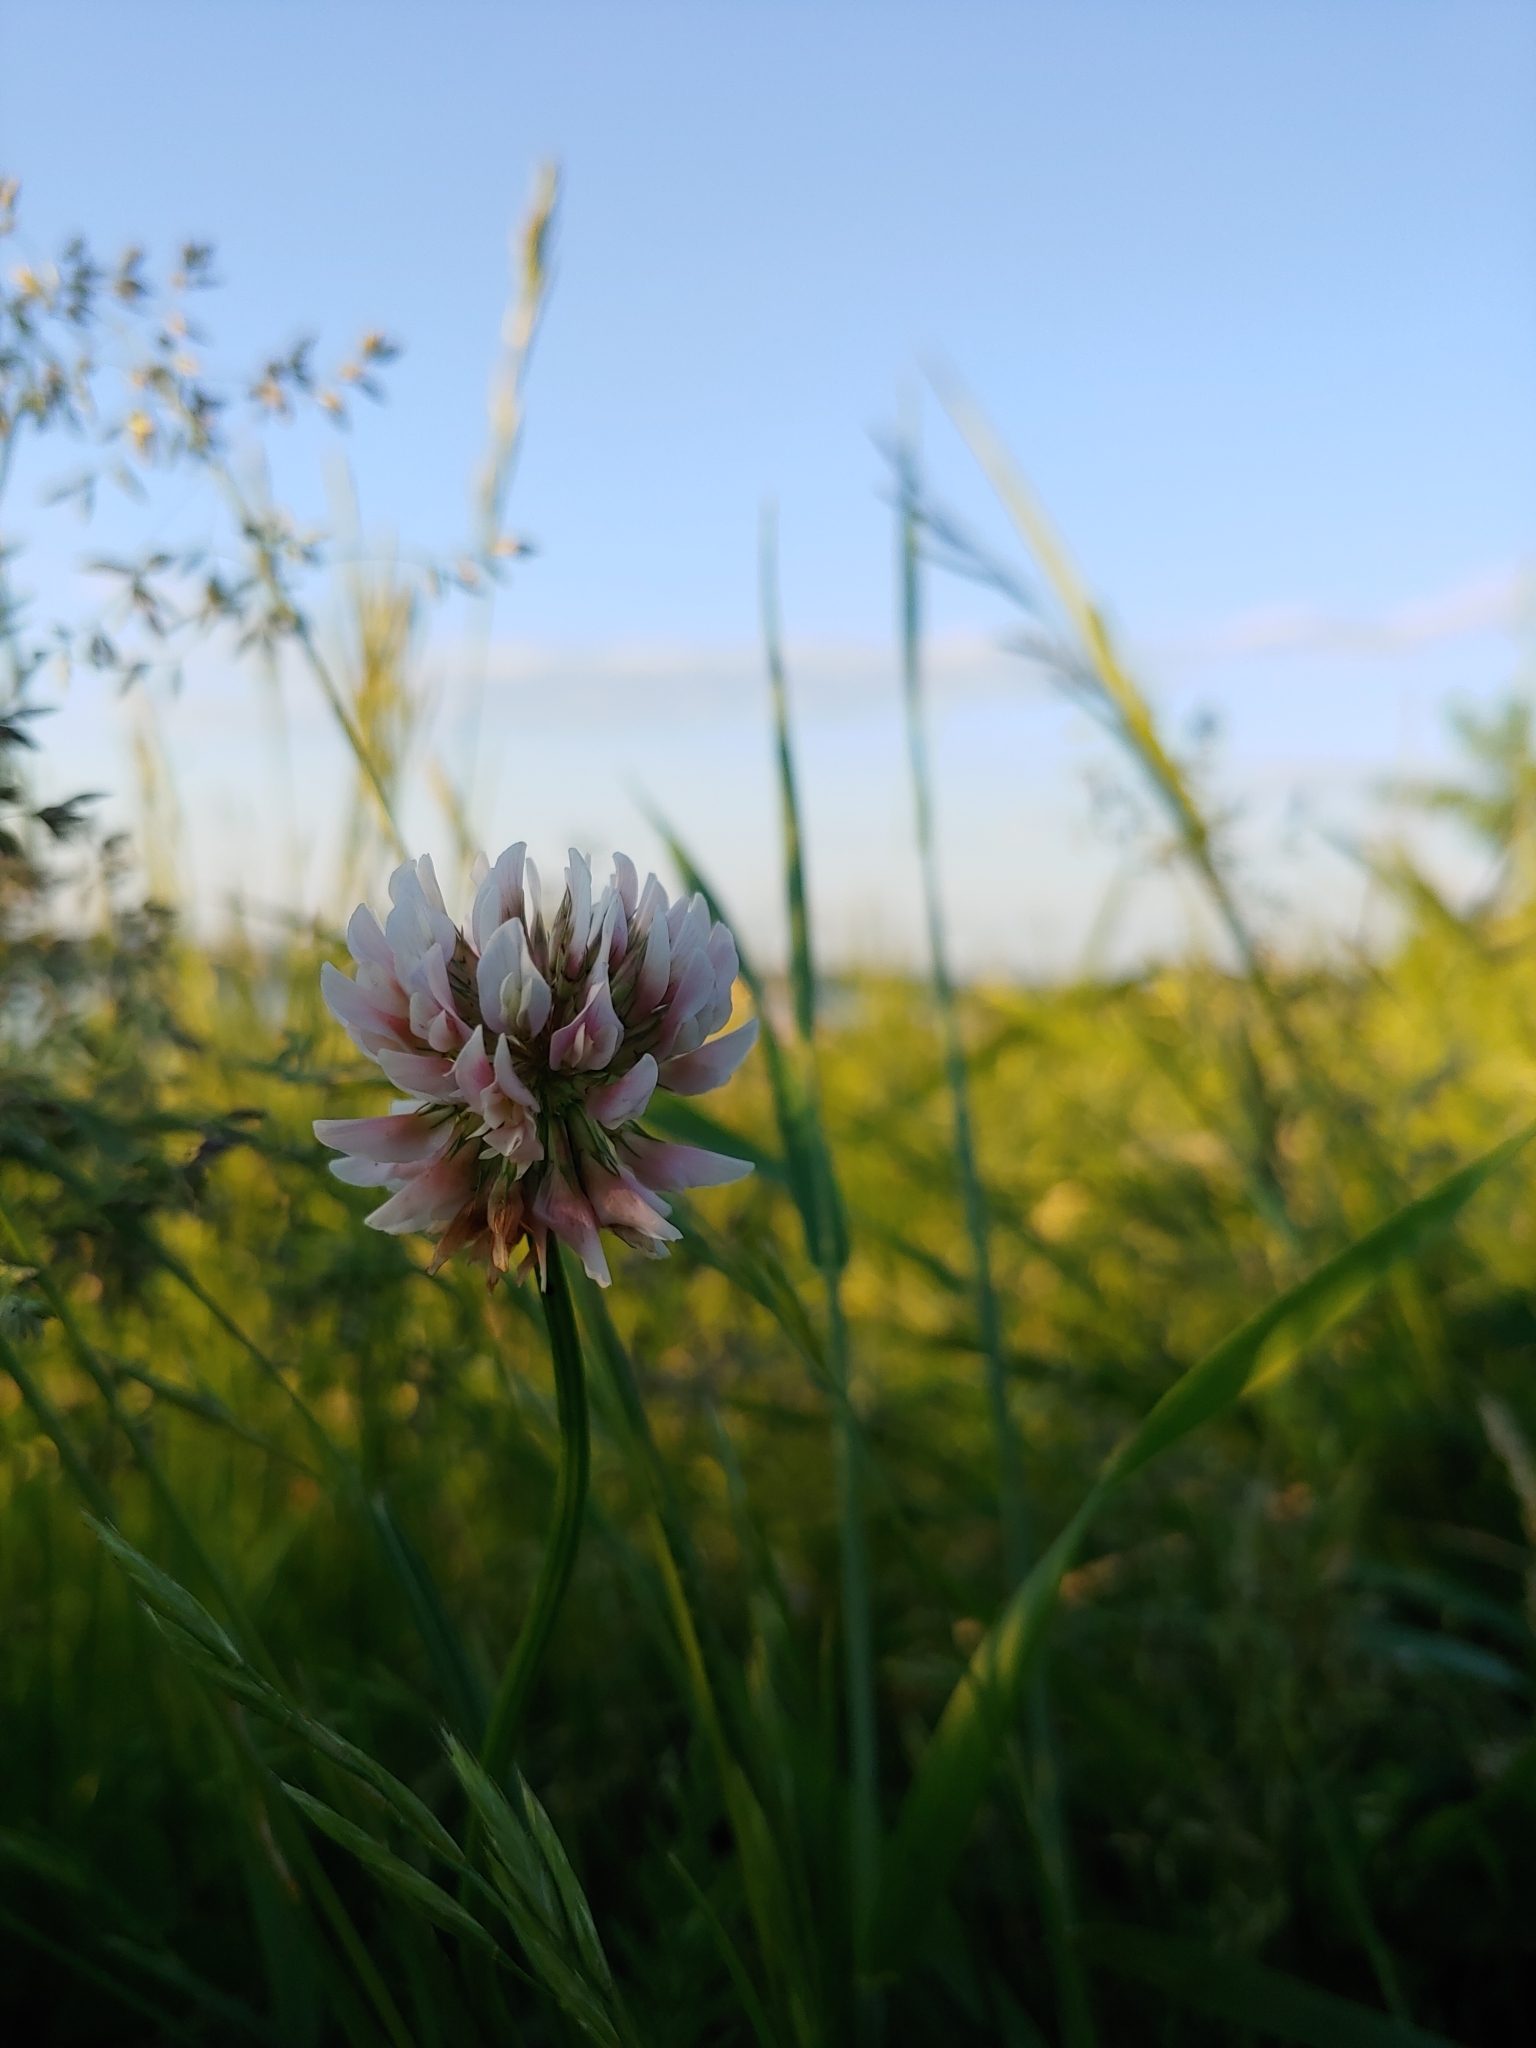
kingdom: Plantae
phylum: Tracheophyta
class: Magnoliopsida
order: Fabales
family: Fabaceae
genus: Trifolium
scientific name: Trifolium hybridum
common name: Alsike clover
